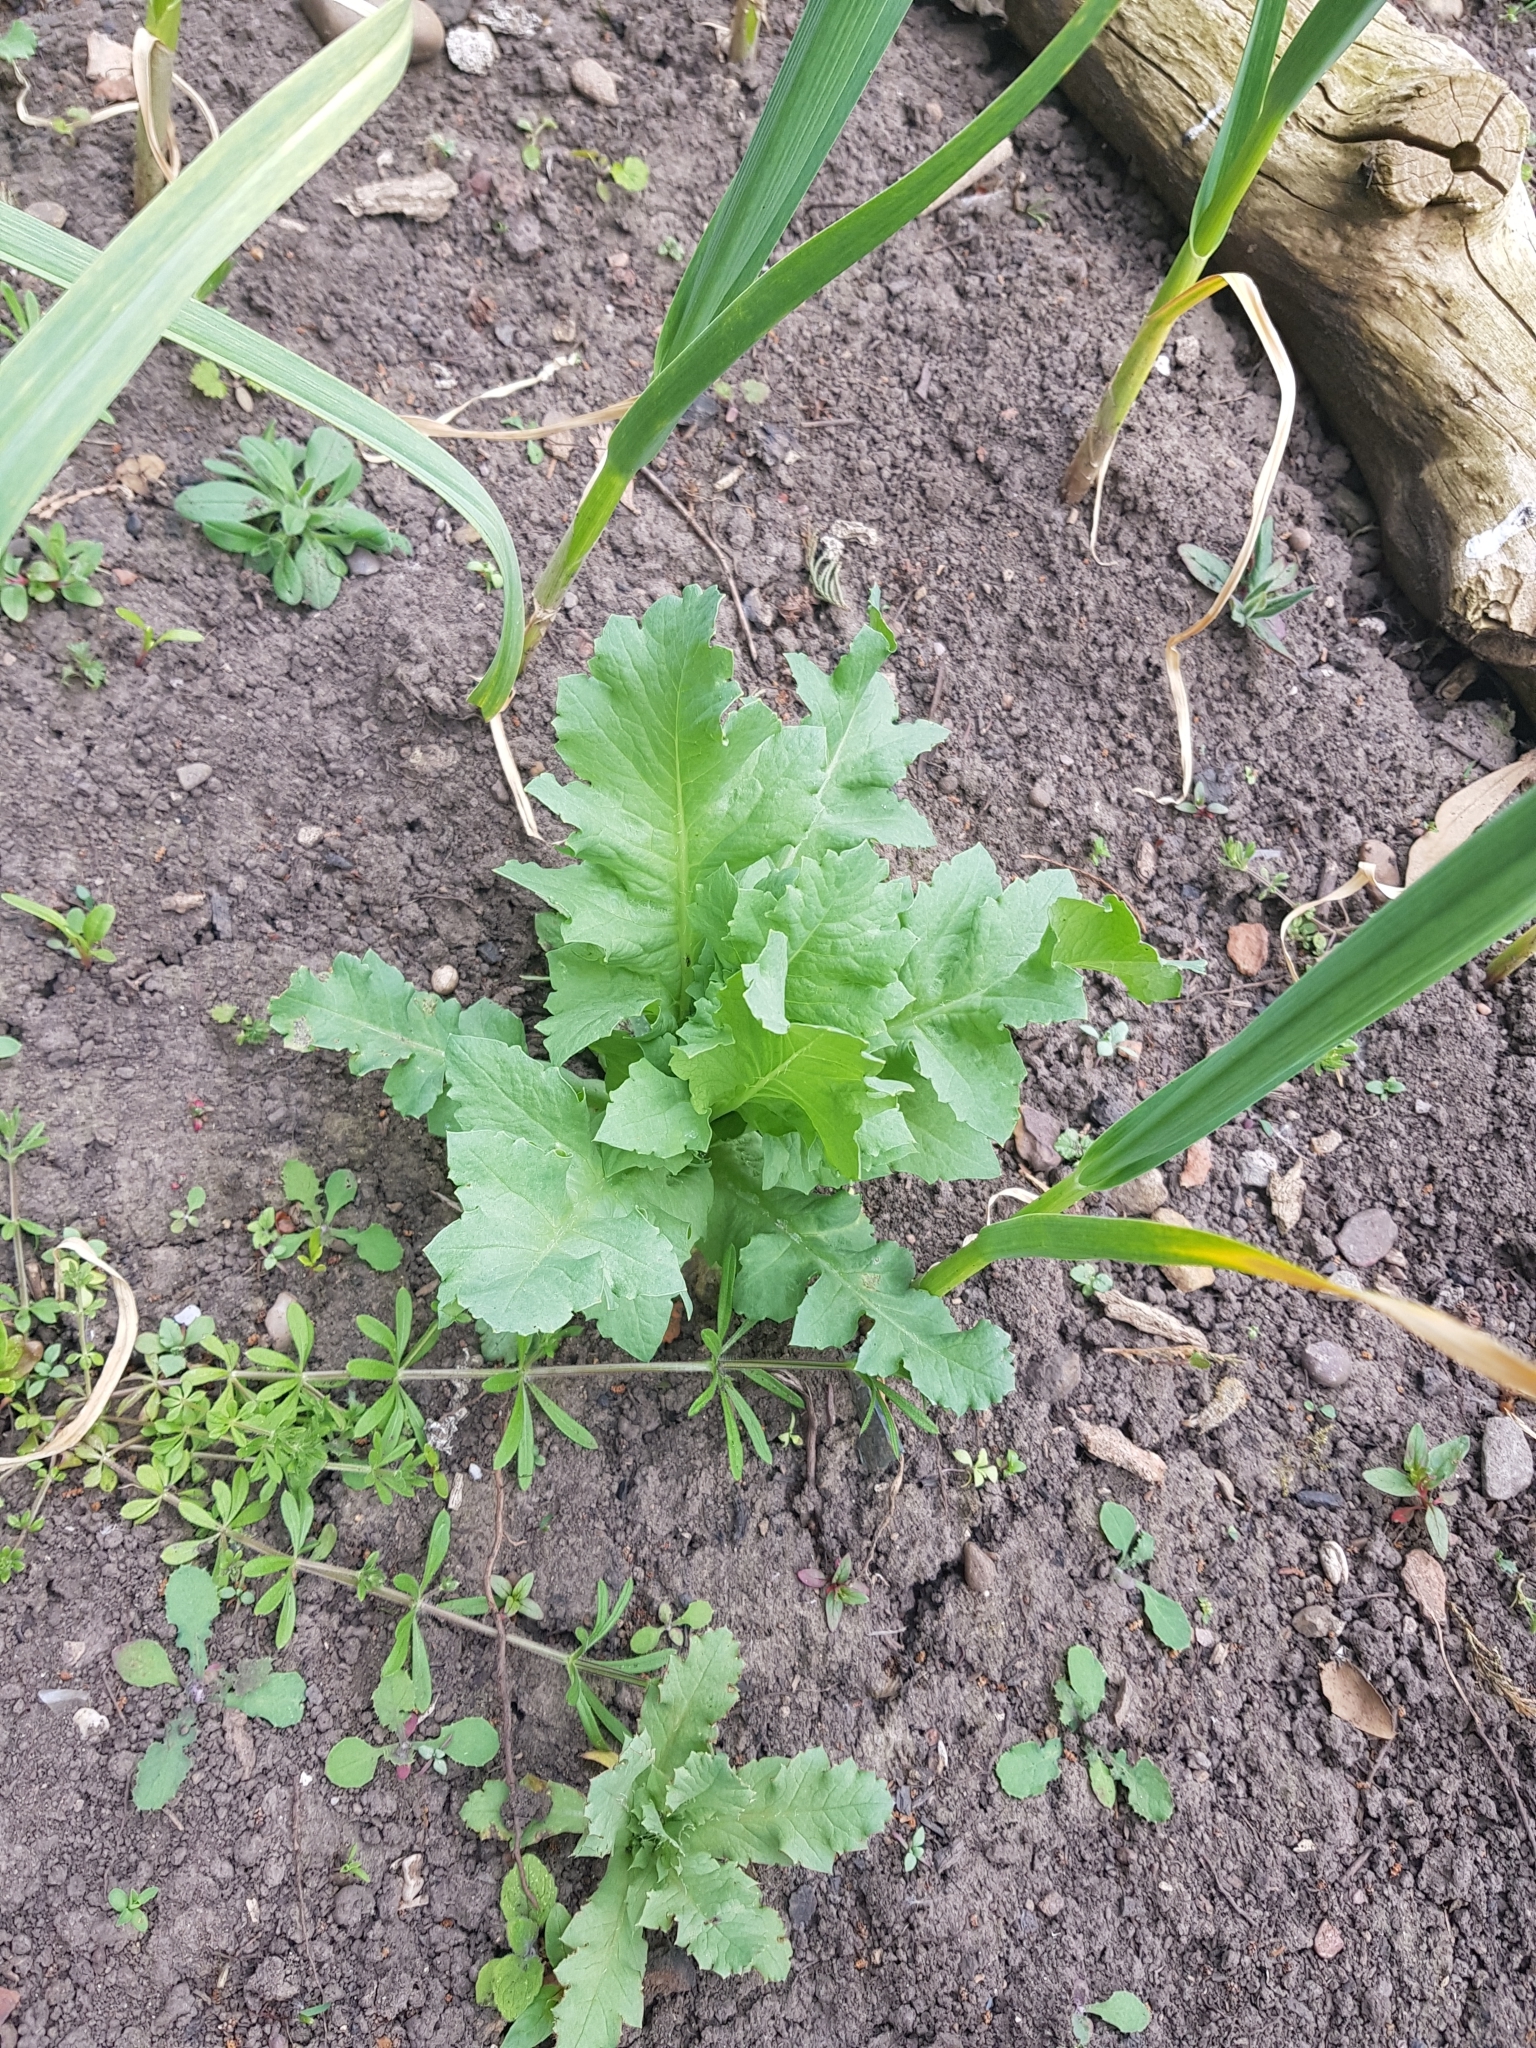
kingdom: Plantae
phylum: Tracheophyta
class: Magnoliopsida
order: Ranunculales
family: Papaveraceae
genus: Papaver
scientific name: Papaver somniferum
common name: Opium poppy
